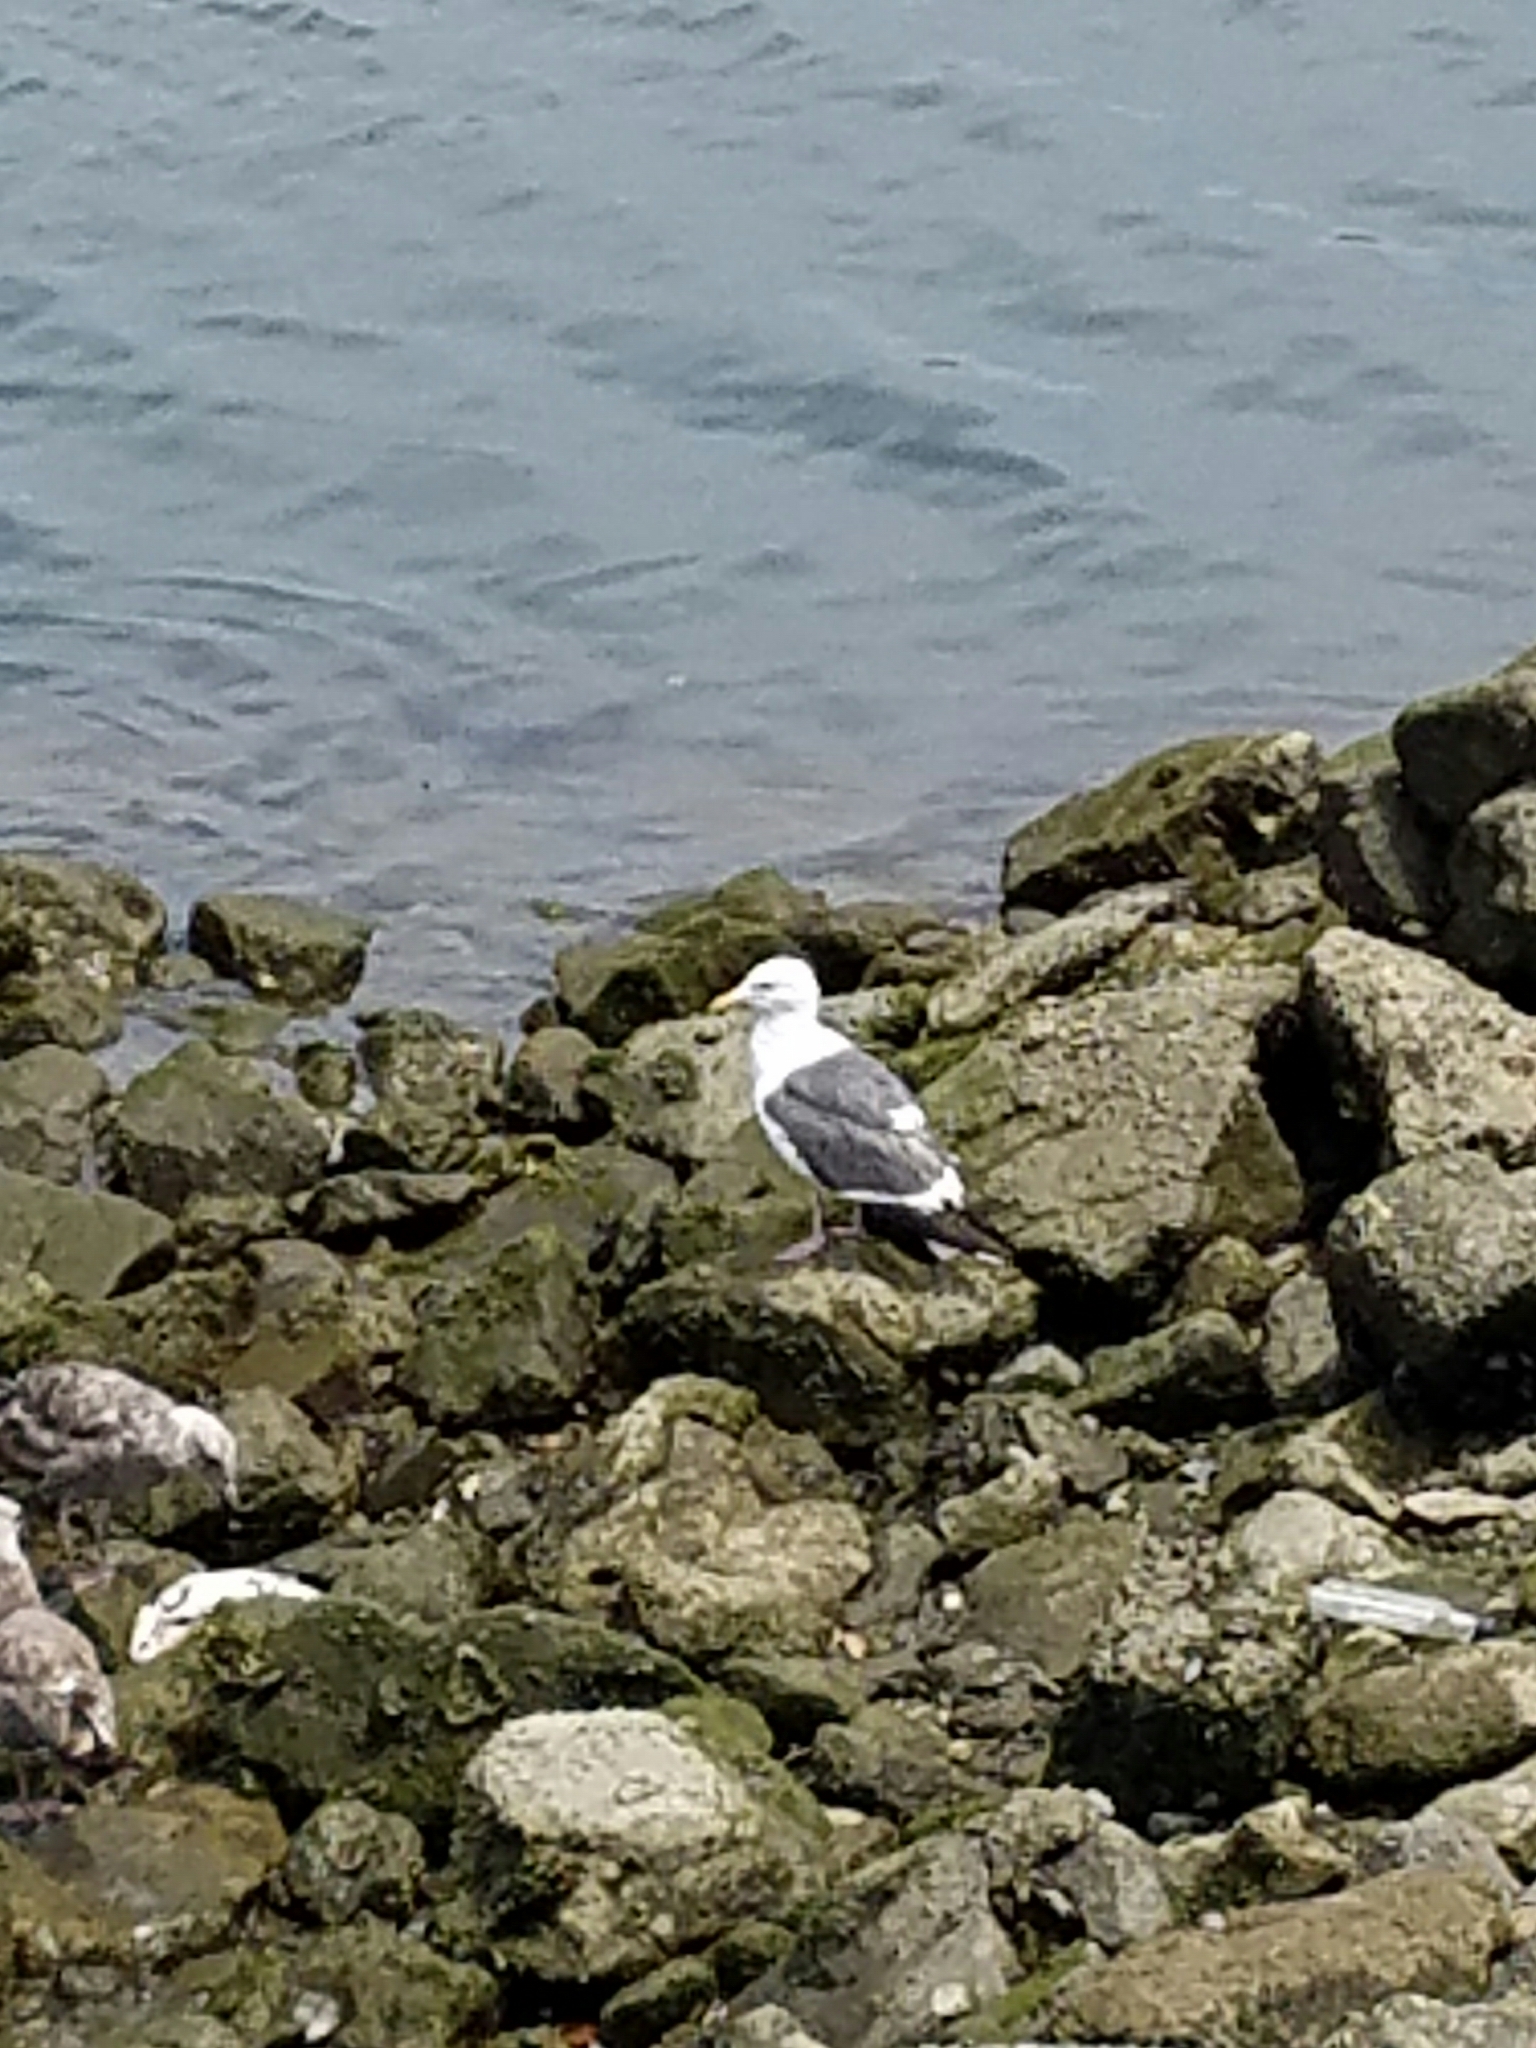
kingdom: Animalia
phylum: Chordata
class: Aves
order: Charadriiformes
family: Laridae
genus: Larus
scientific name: Larus occidentalis
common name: Western gull
